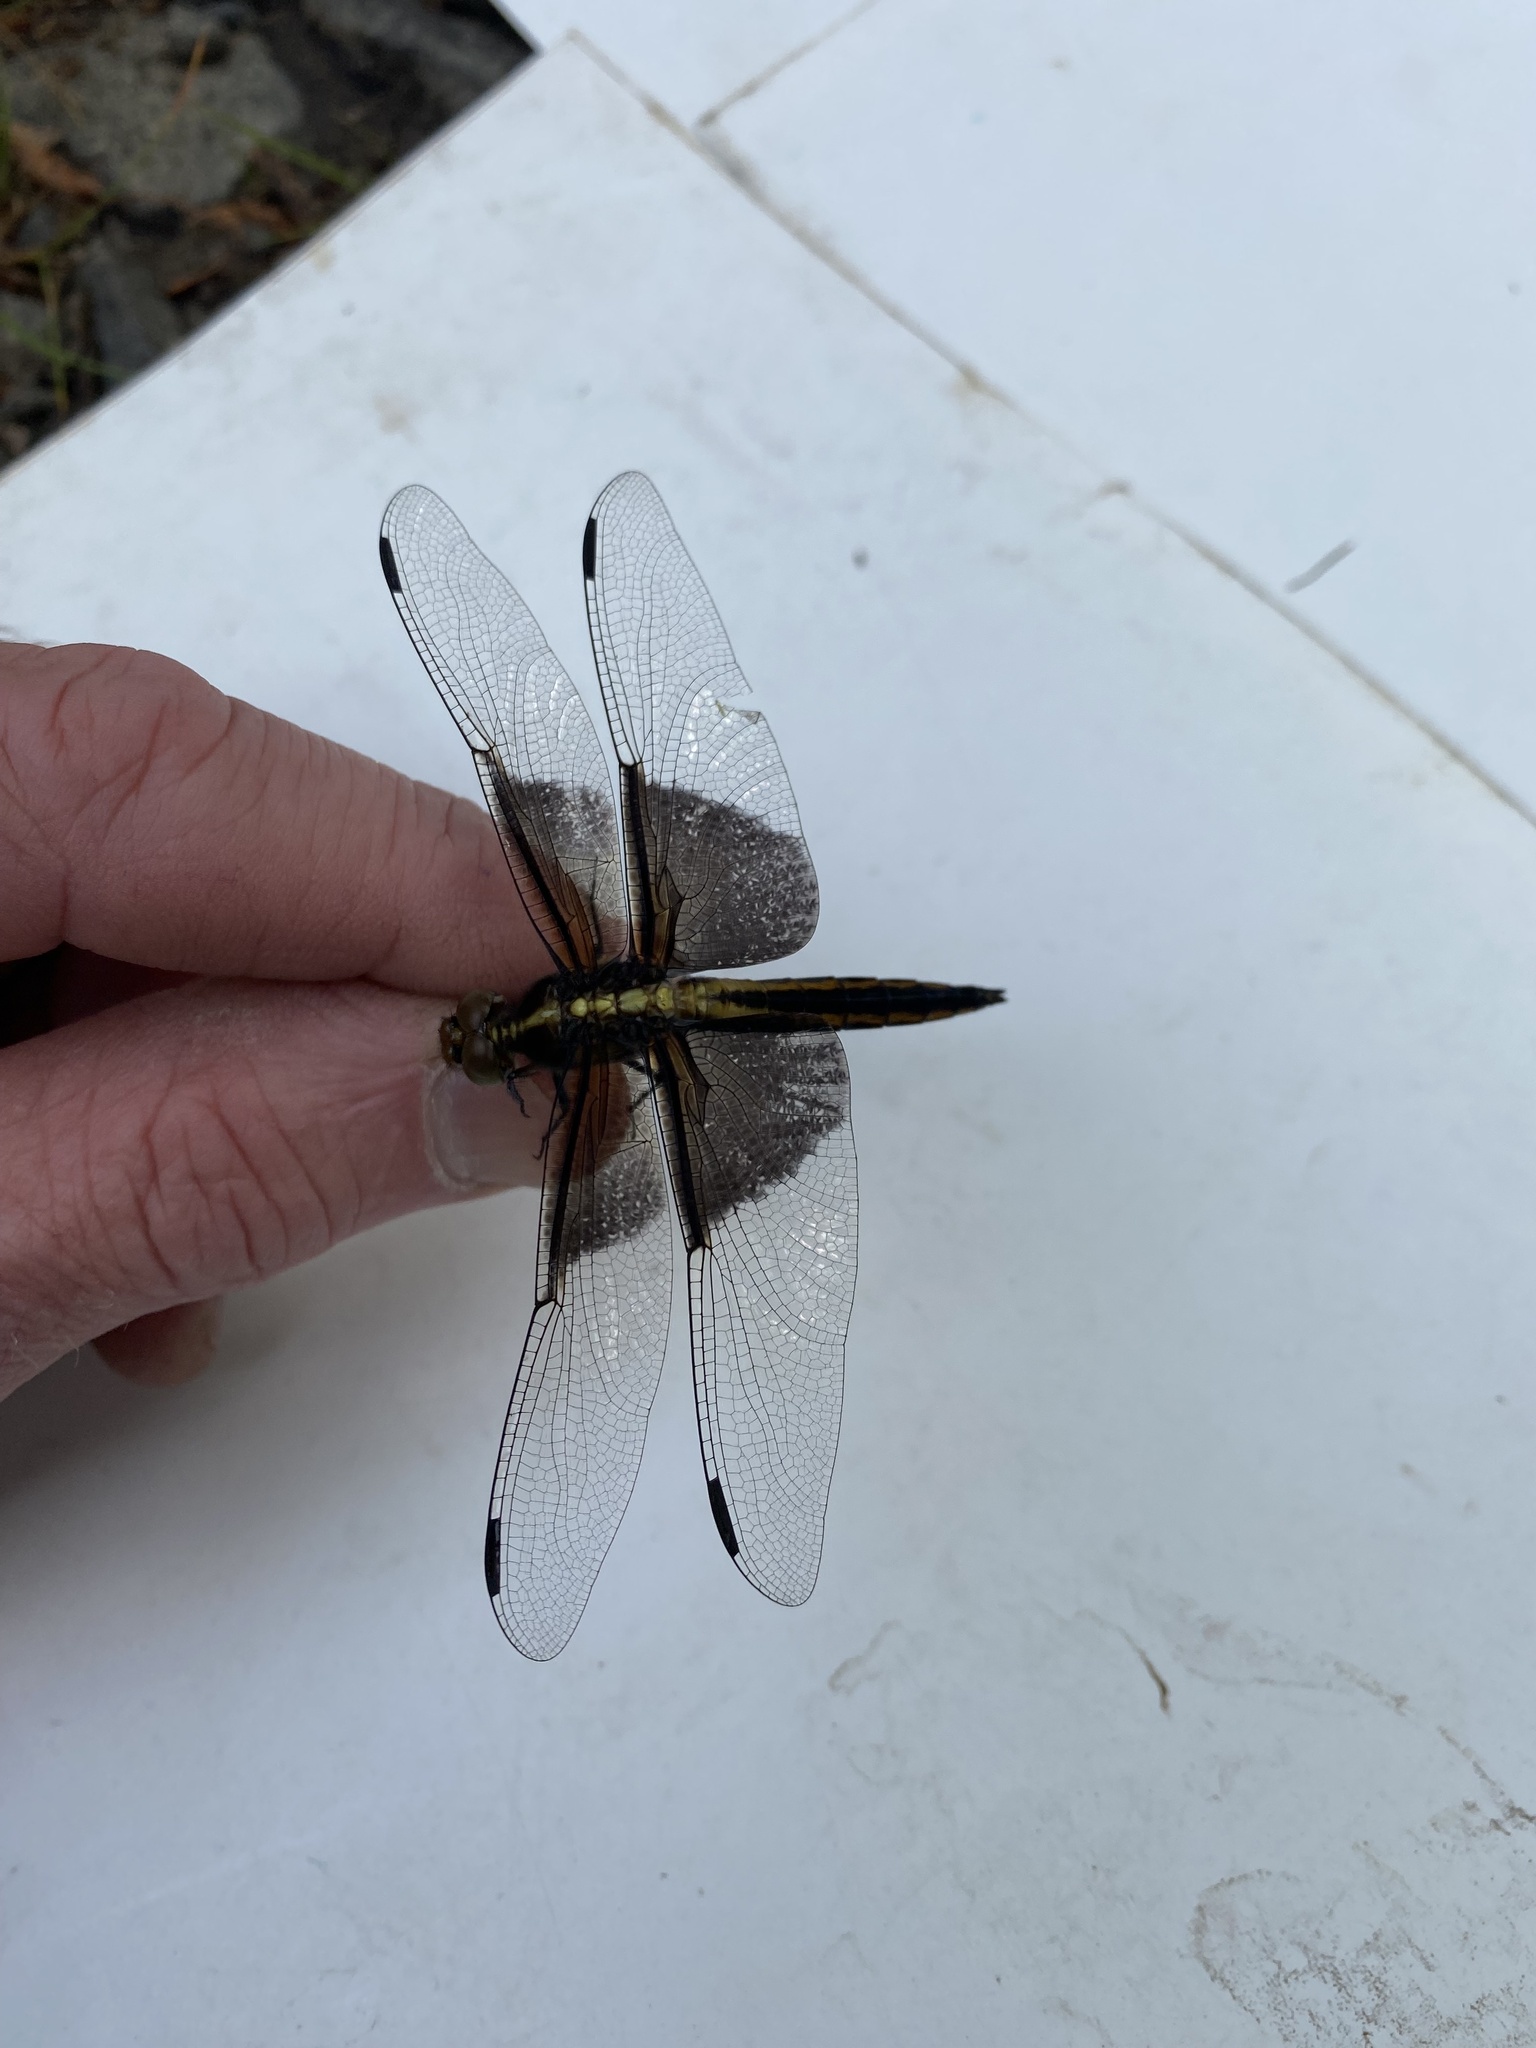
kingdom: Animalia
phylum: Arthropoda
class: Insecta
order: Odonata
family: Libellulidae
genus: Libellula
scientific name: Libellula luctuosa
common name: Widow skimmer
